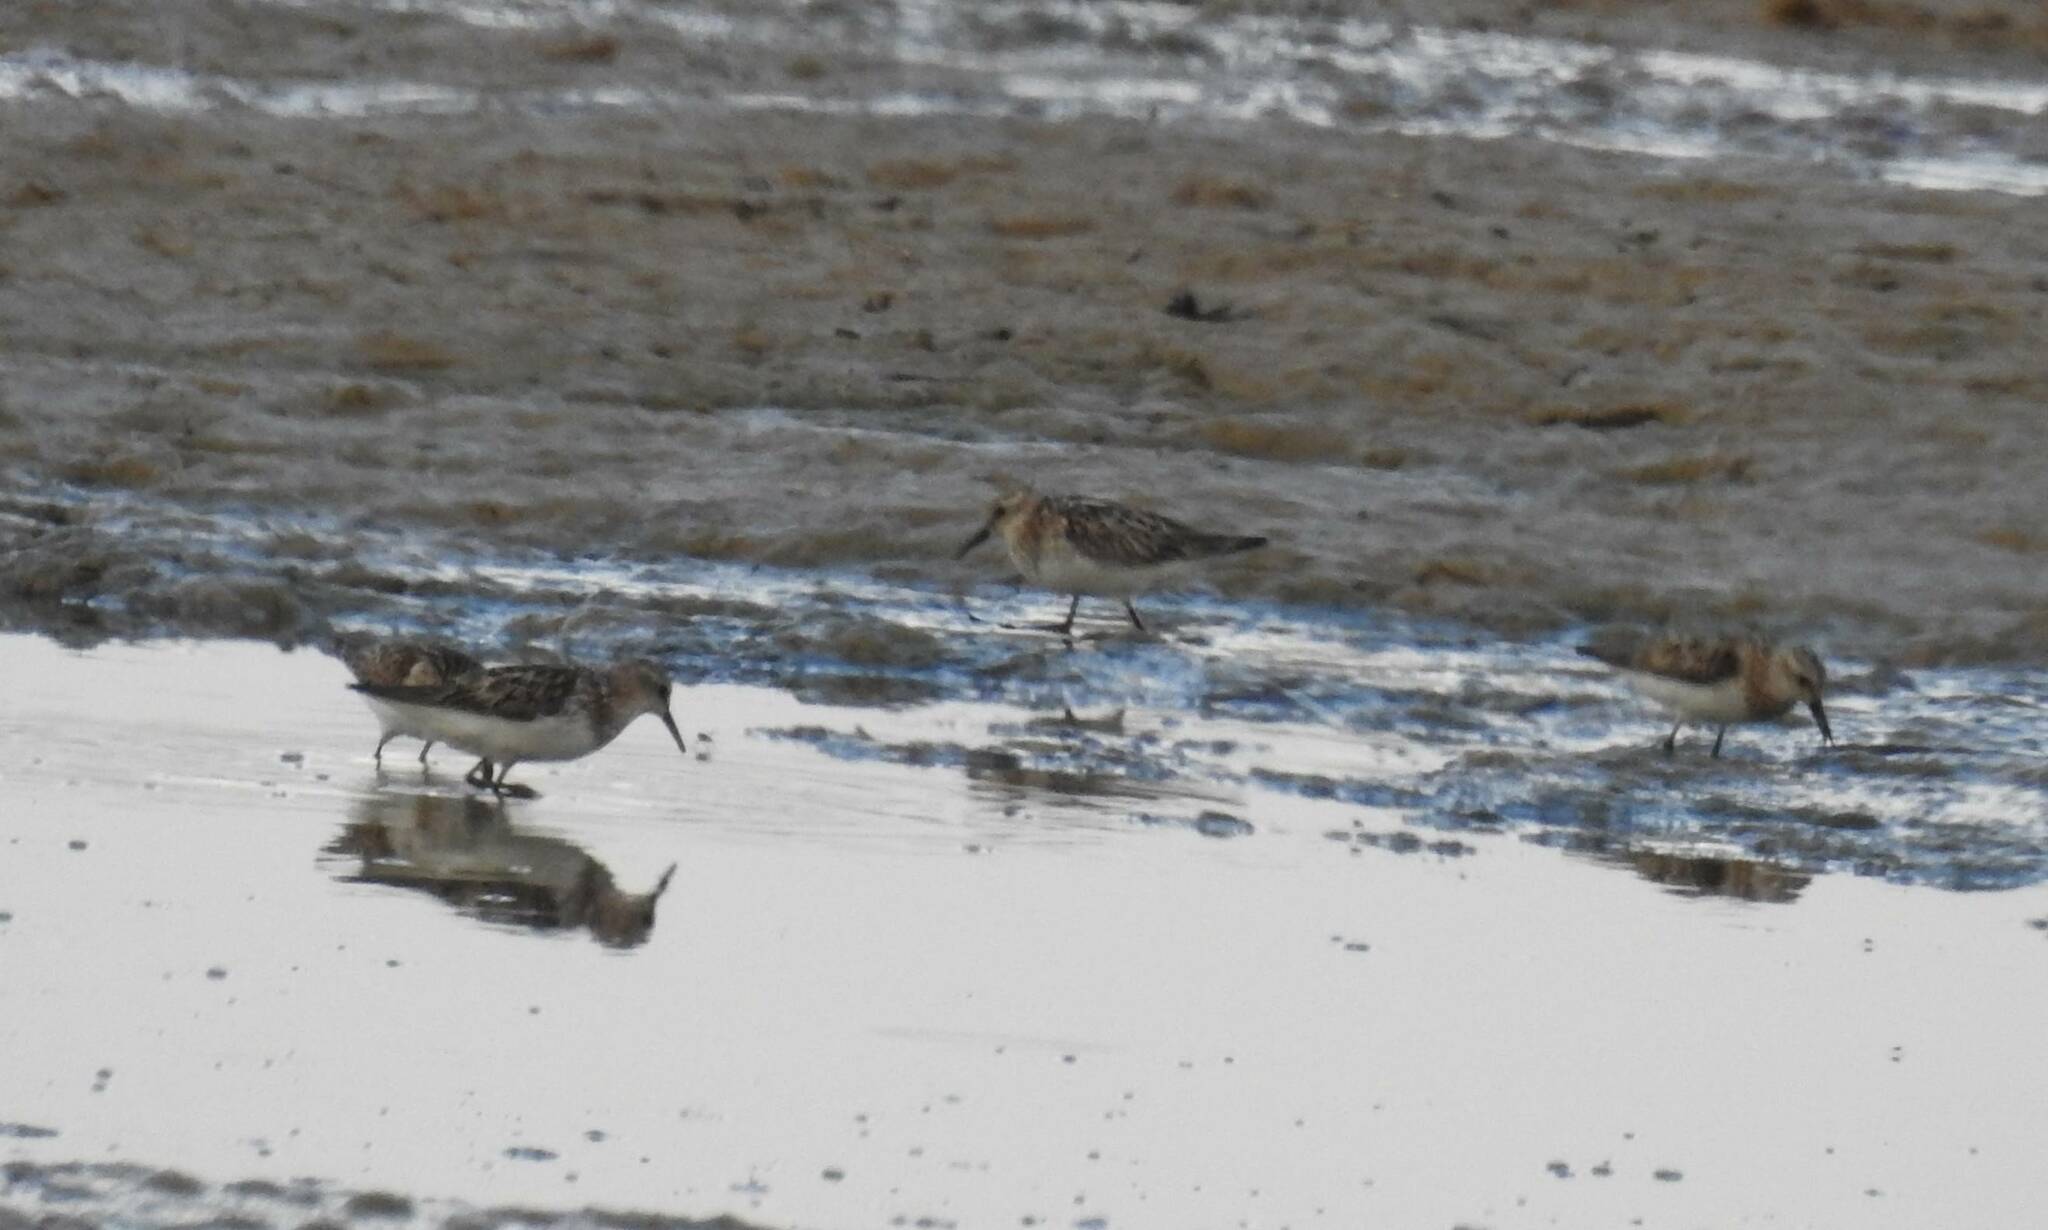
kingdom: Animalia
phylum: Chordata
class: Aves
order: Charadriiformes
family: Scolopacidae
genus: Calidris
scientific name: Calidris minuta
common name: Little stint
